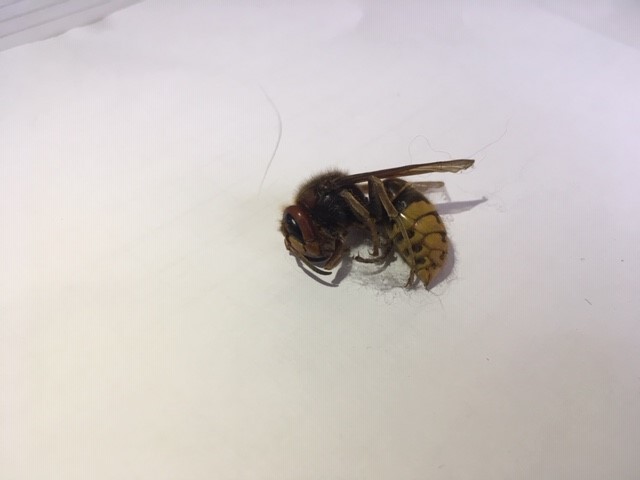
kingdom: Animalia
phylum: Arthropoda
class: Insecta
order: Hymenoptera
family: Vespidae
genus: Vespa
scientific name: Vespa crabro
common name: Hornet
